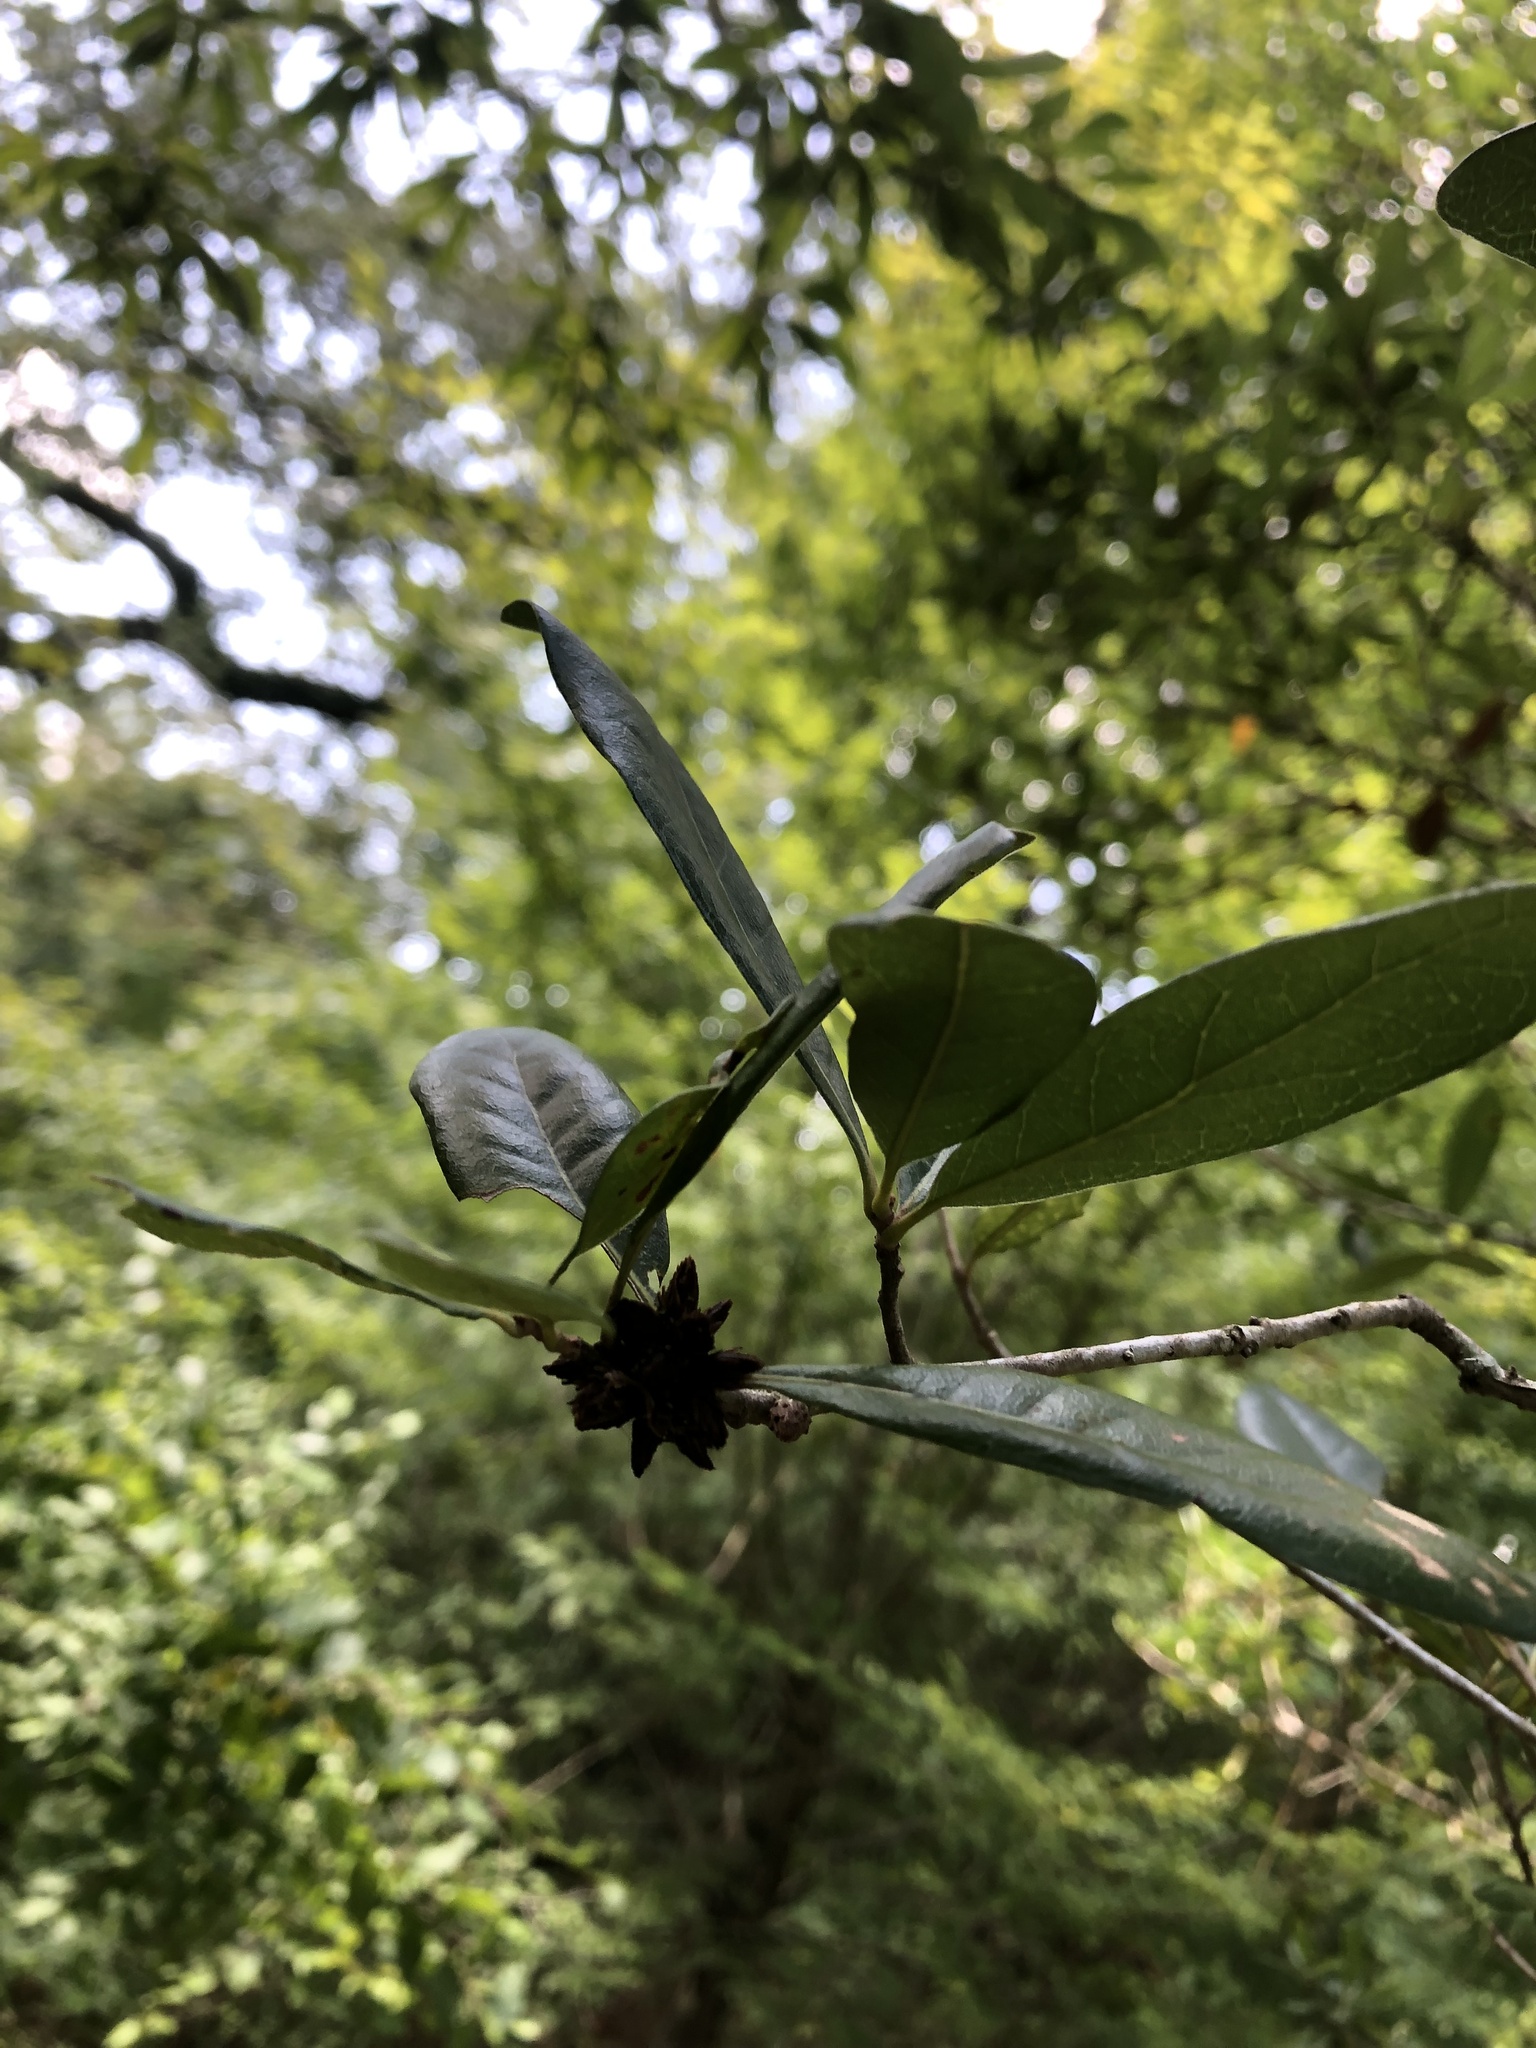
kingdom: Animalia
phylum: Arthropoda
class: Insecta
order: Diptera
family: Cecidomyiidae
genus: Arnoldiola
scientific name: Arnoldiola atra
